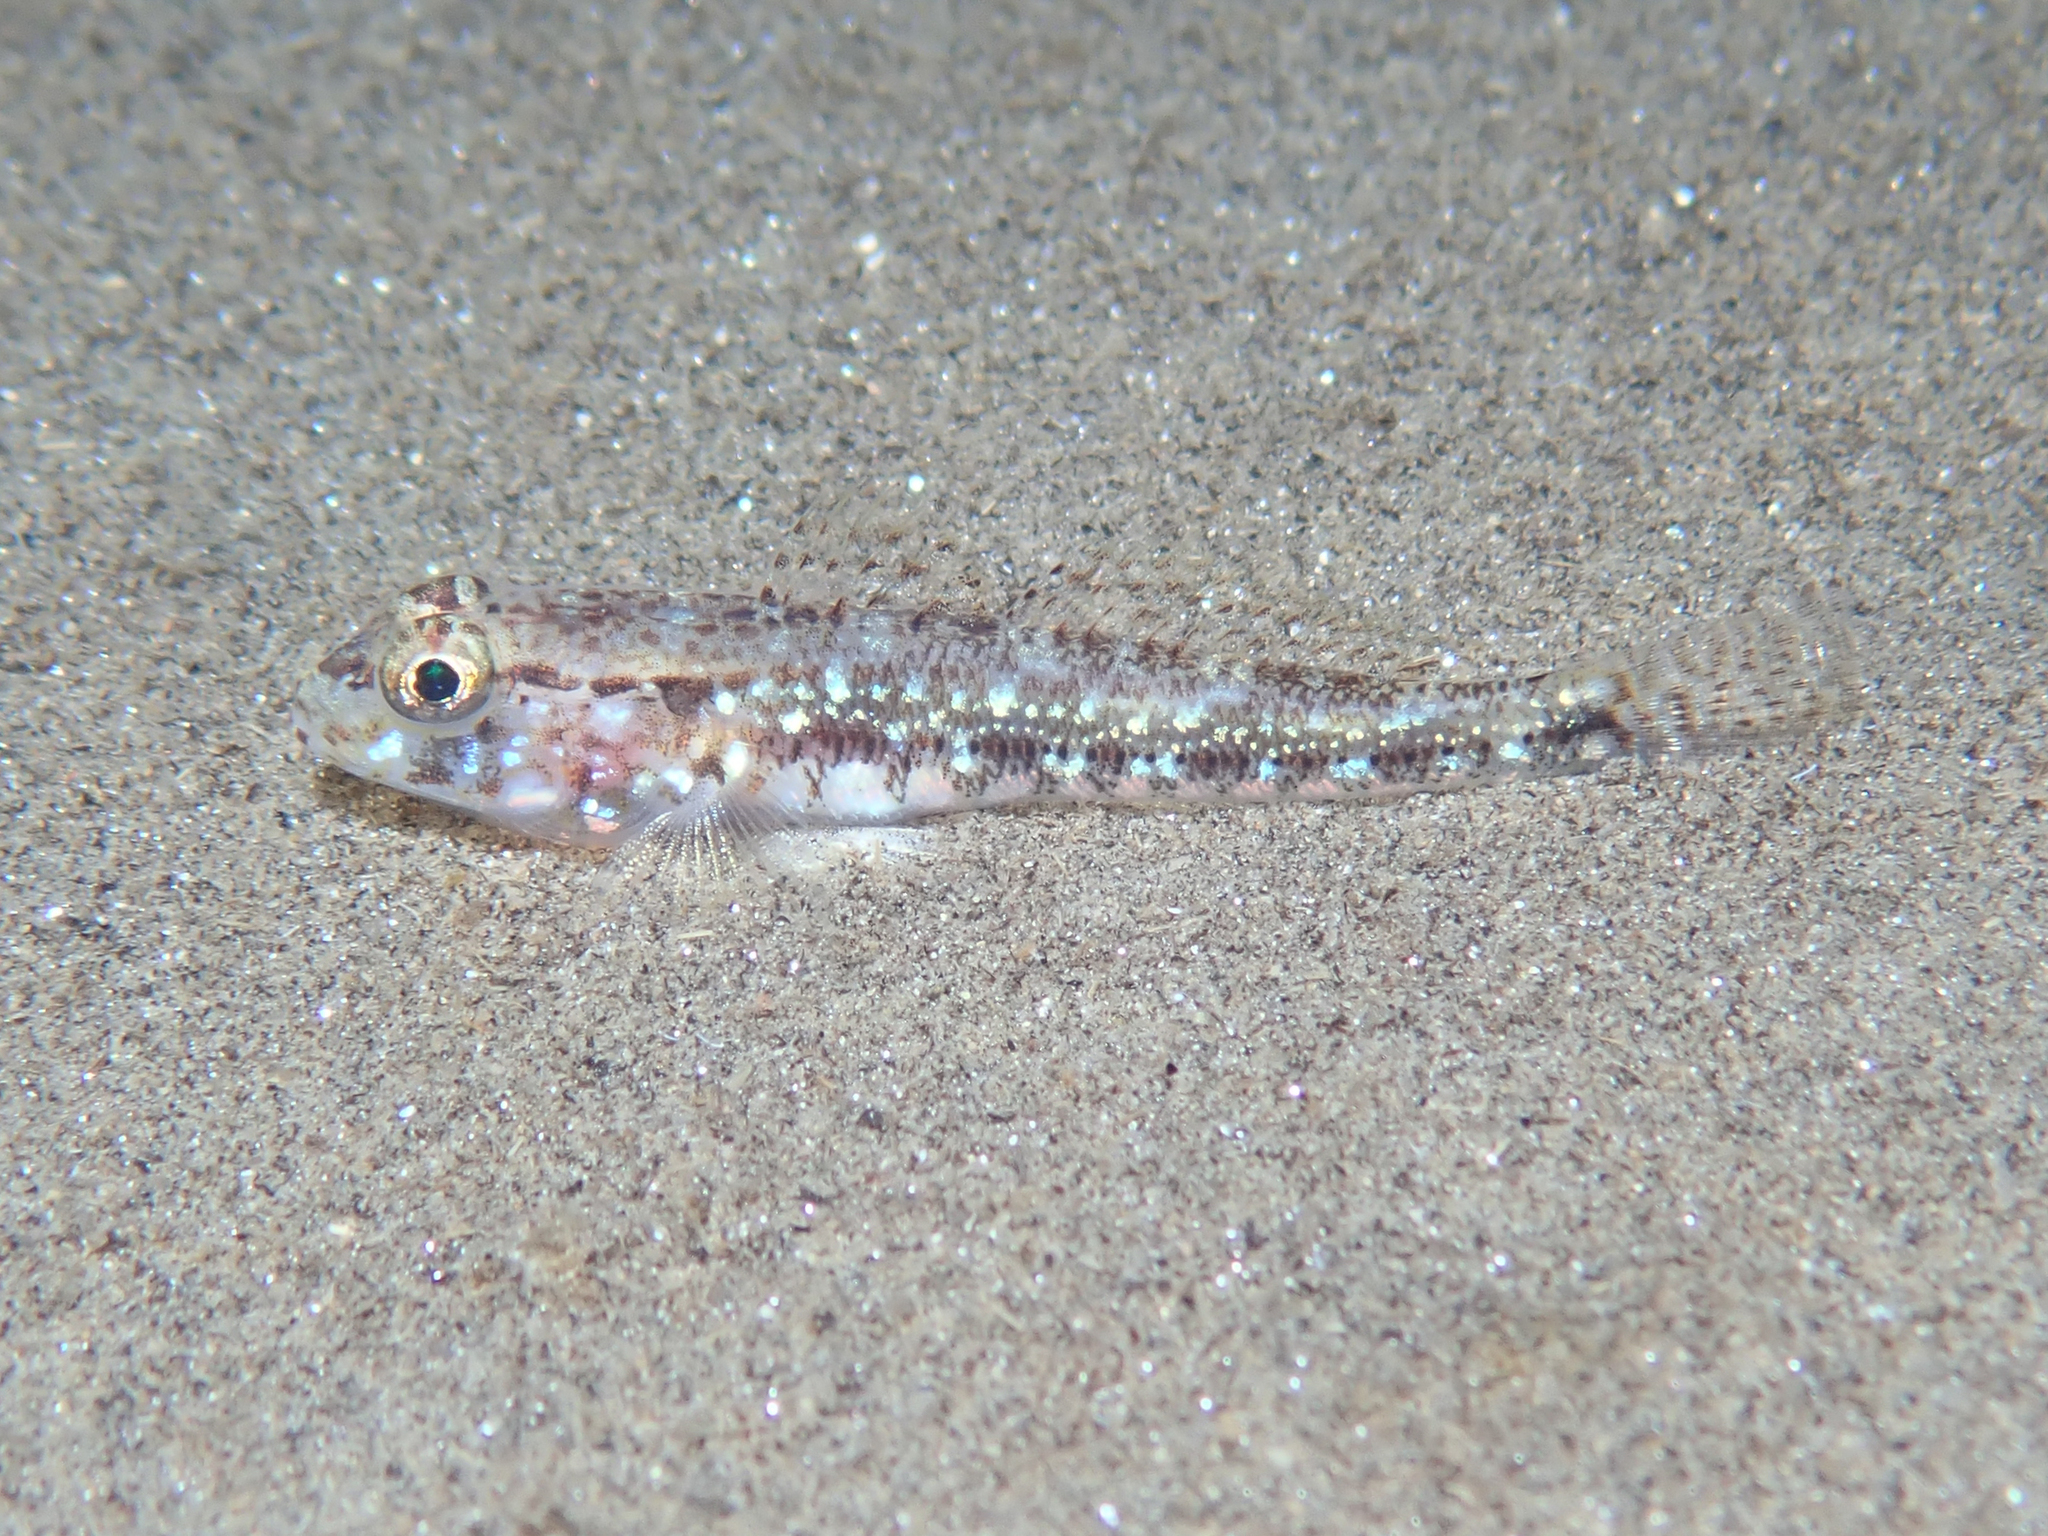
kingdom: Animalia
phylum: Chordata
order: Perciformes
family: Gobiidae
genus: Gobius
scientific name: Gobius geniporus
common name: Slender goby
